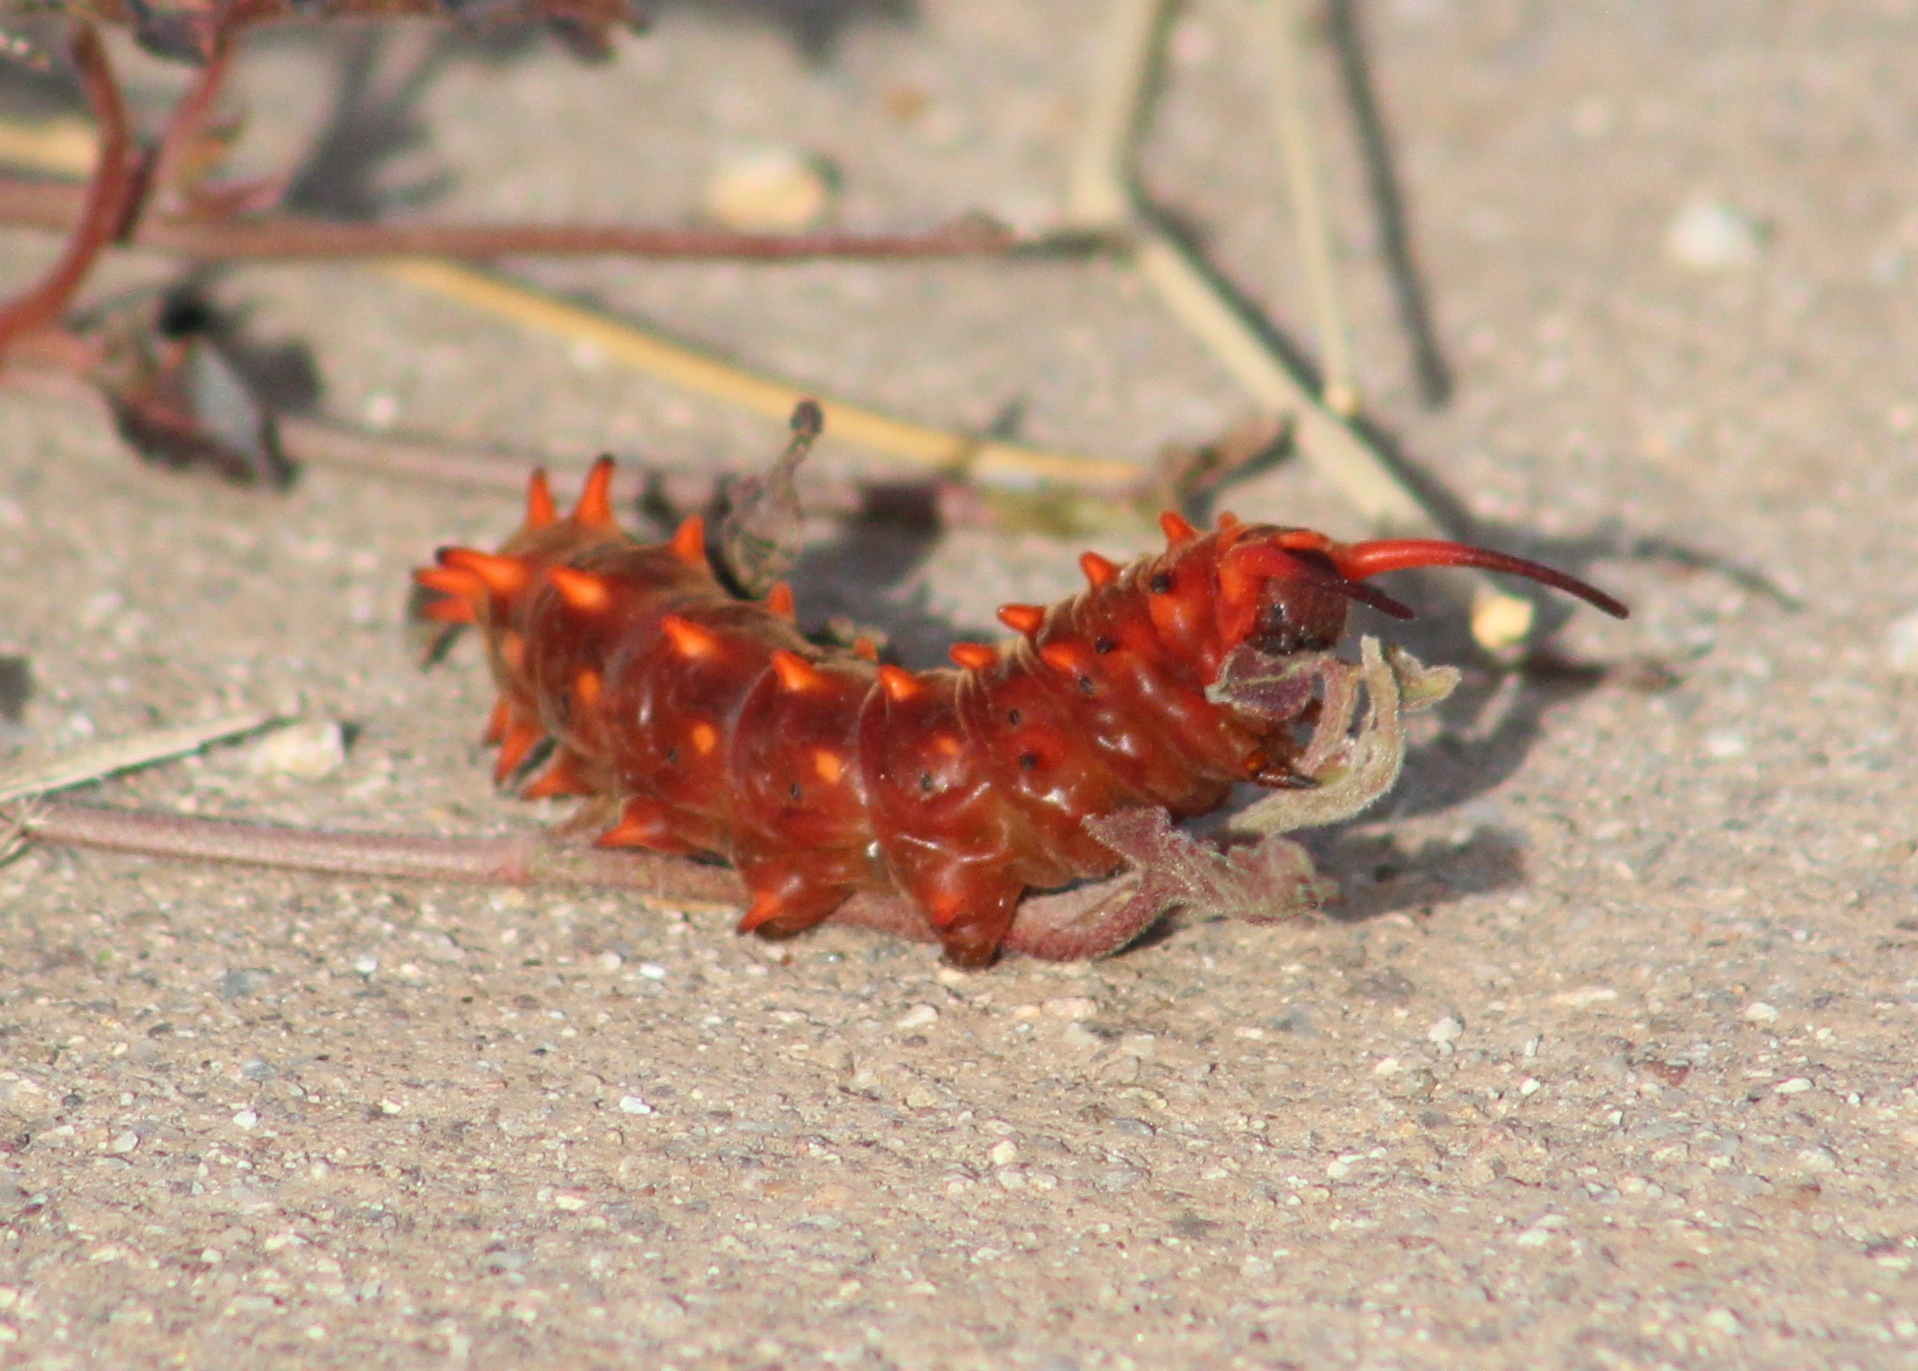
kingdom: Animalia
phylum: Arthropoda
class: Insecta
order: Lepidoptera
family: Papilionidae
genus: Battus
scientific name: Battus philenor
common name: Pipevine swallowtail
